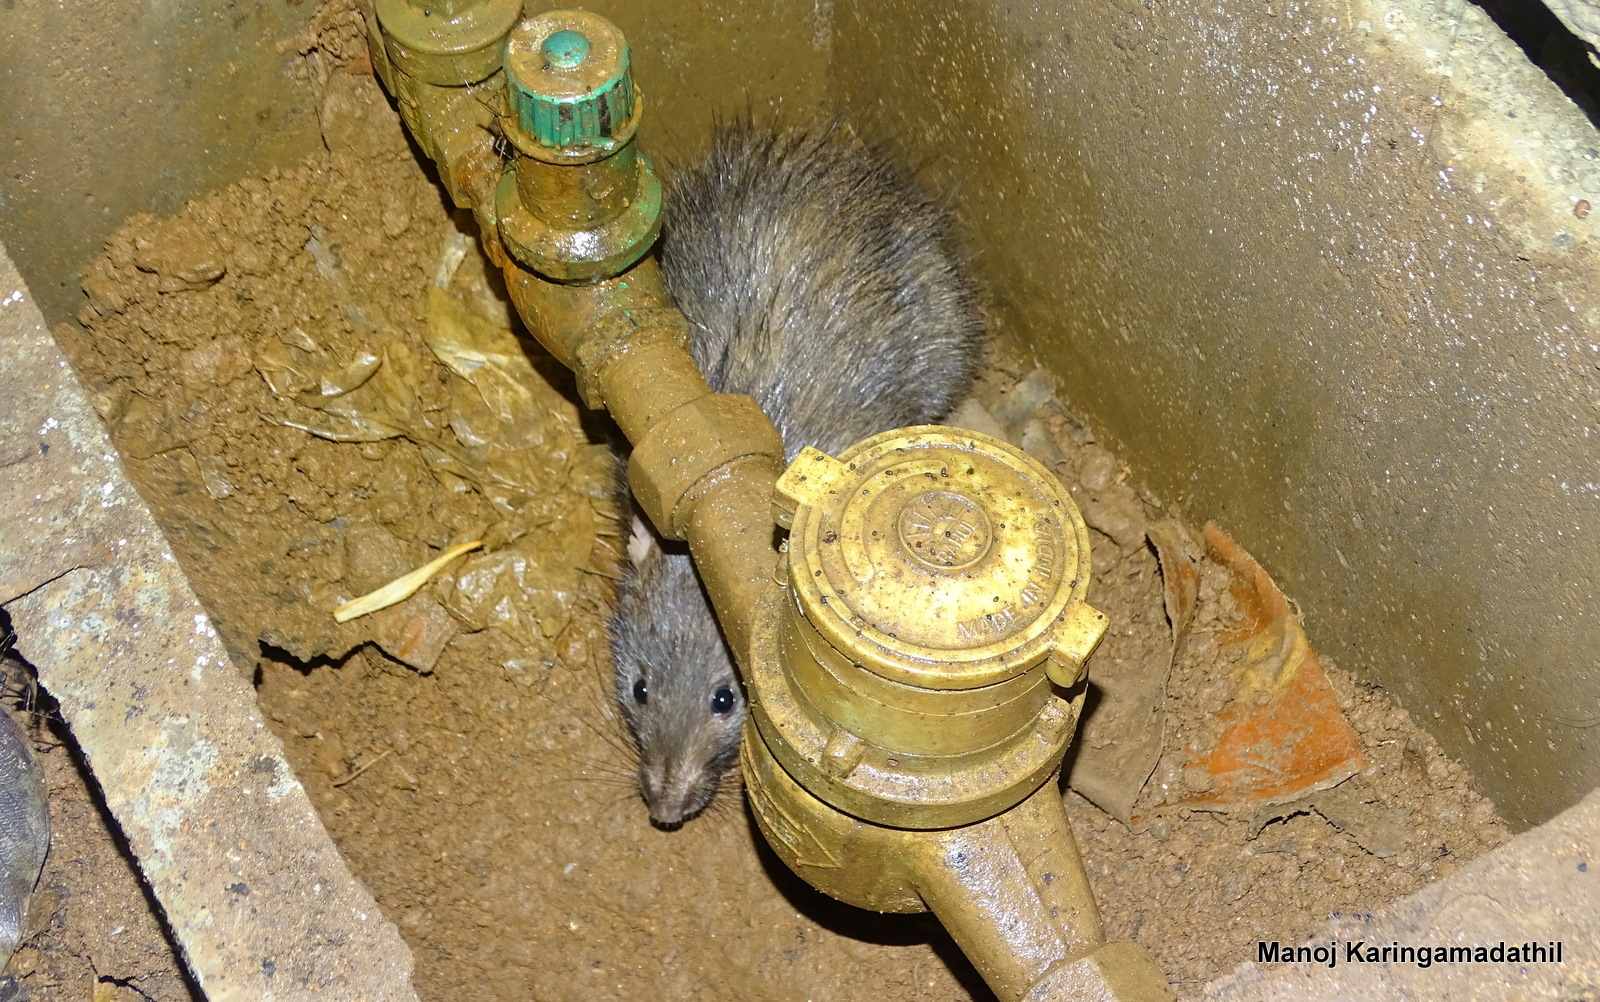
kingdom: Animalia
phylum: Chordata
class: Mammalia
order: Rodentia
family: Muridae
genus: Bandicota
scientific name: Bandicota indica
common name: Greater bandicoot rat
